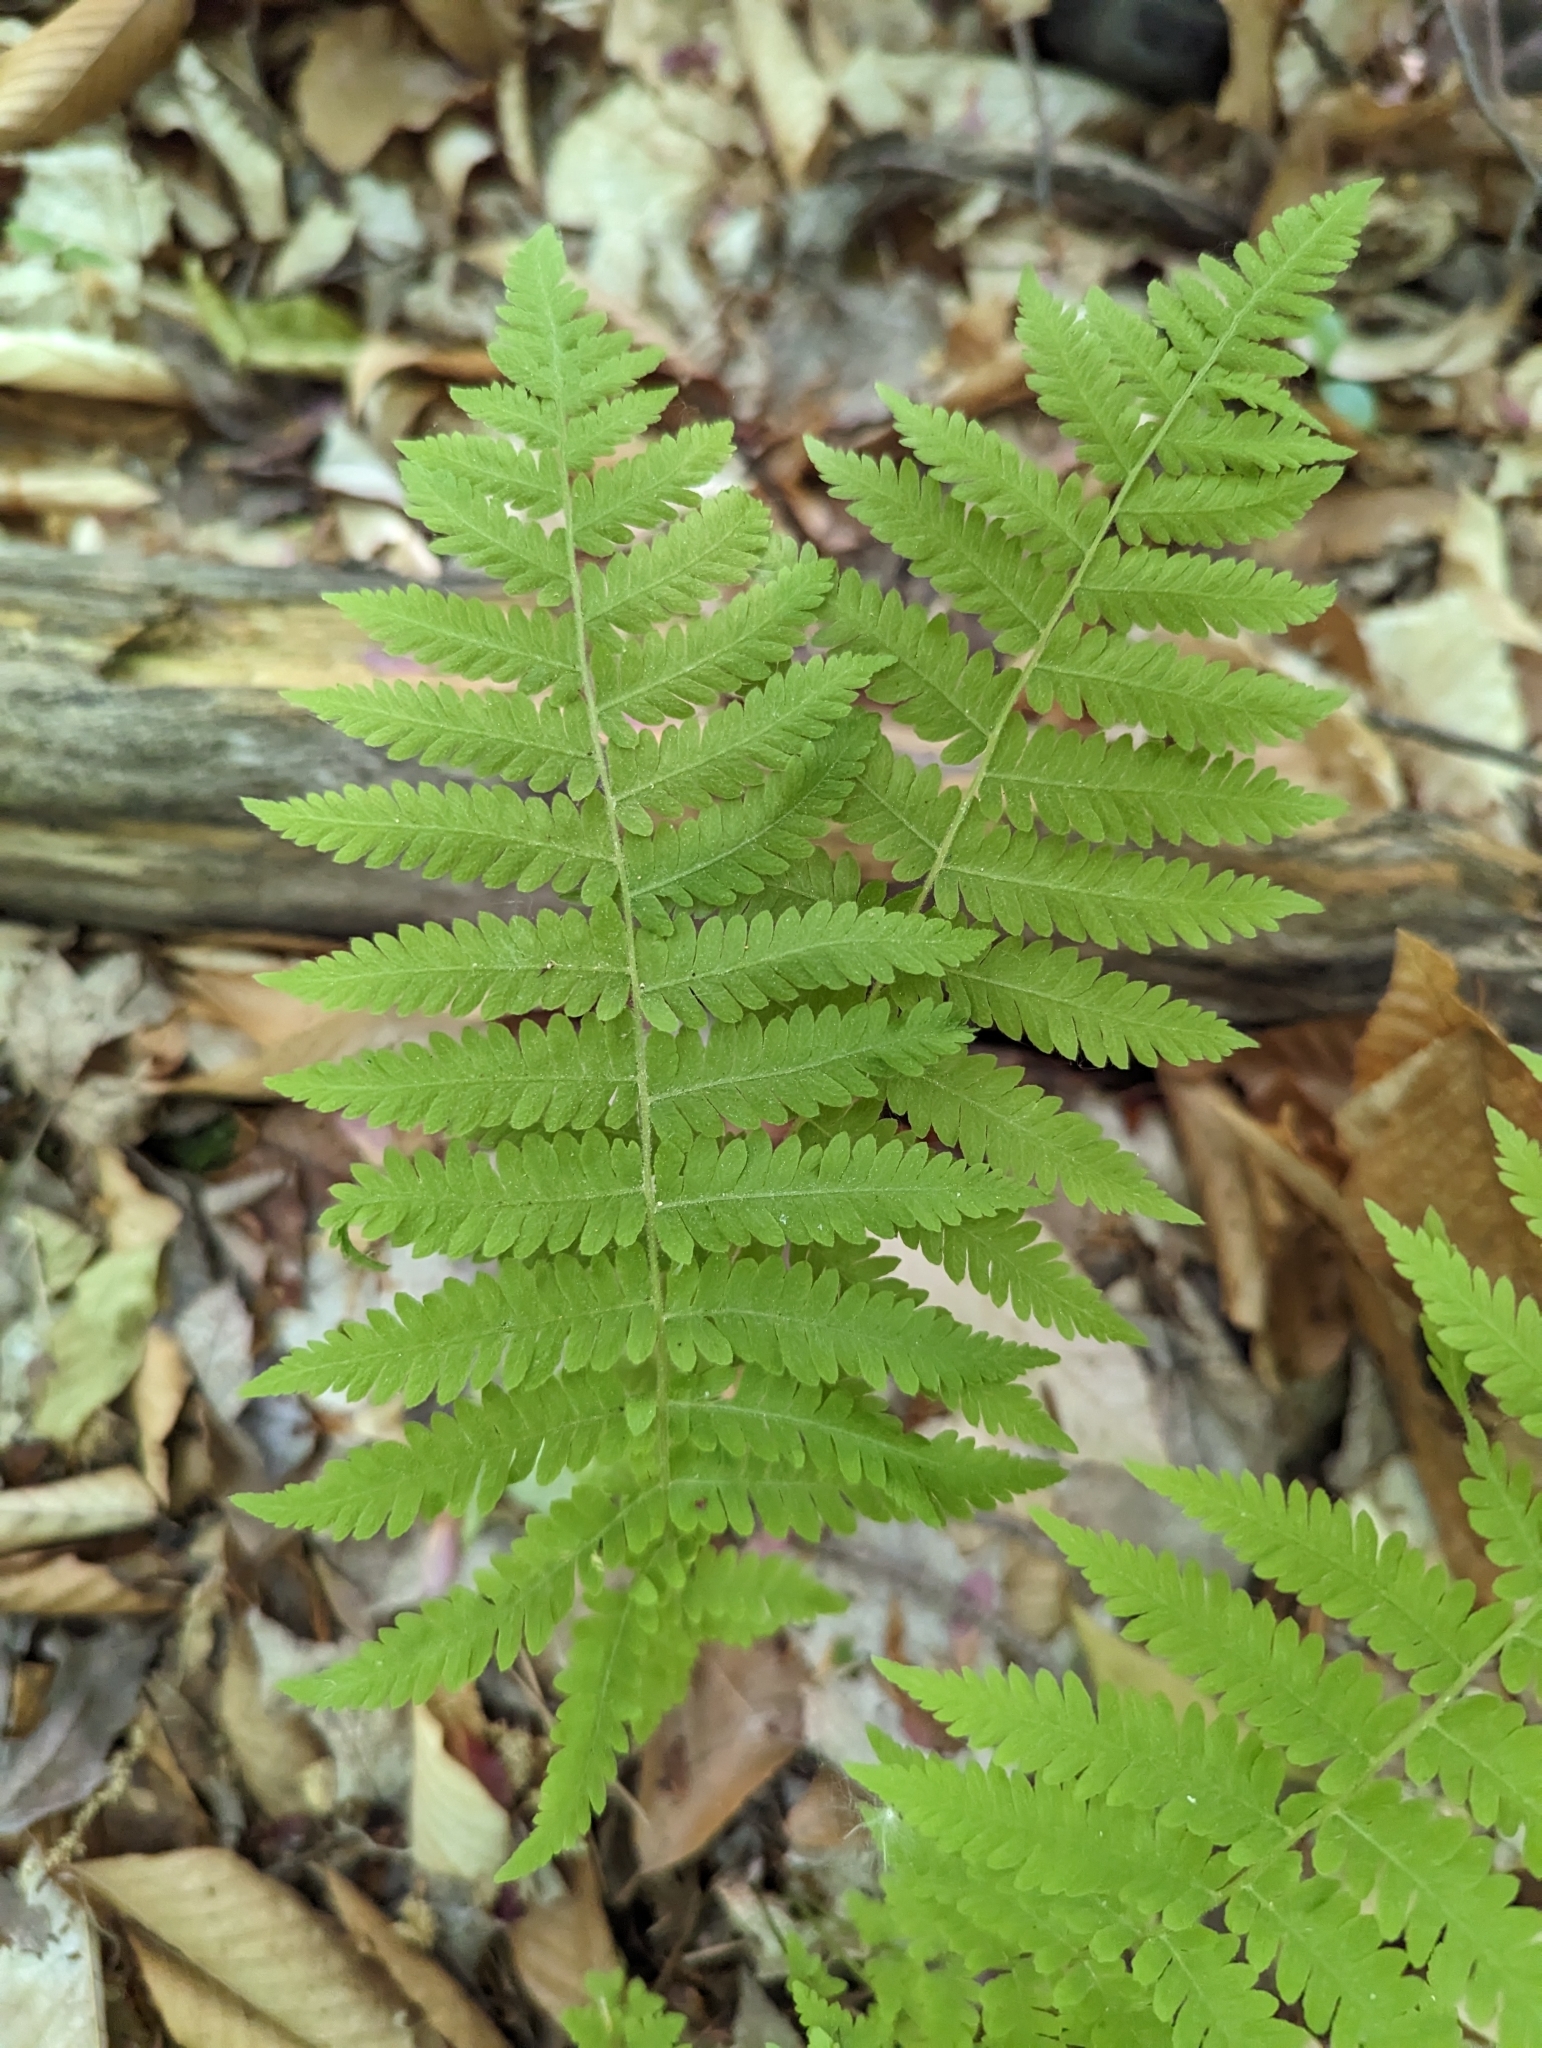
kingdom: Plantae
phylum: Tracheophyta
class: Polypodiopsida
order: Polypodiales
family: Thelypteridaceae
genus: Amauropelta
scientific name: Amauropelta noveboracensis
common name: New york fern
